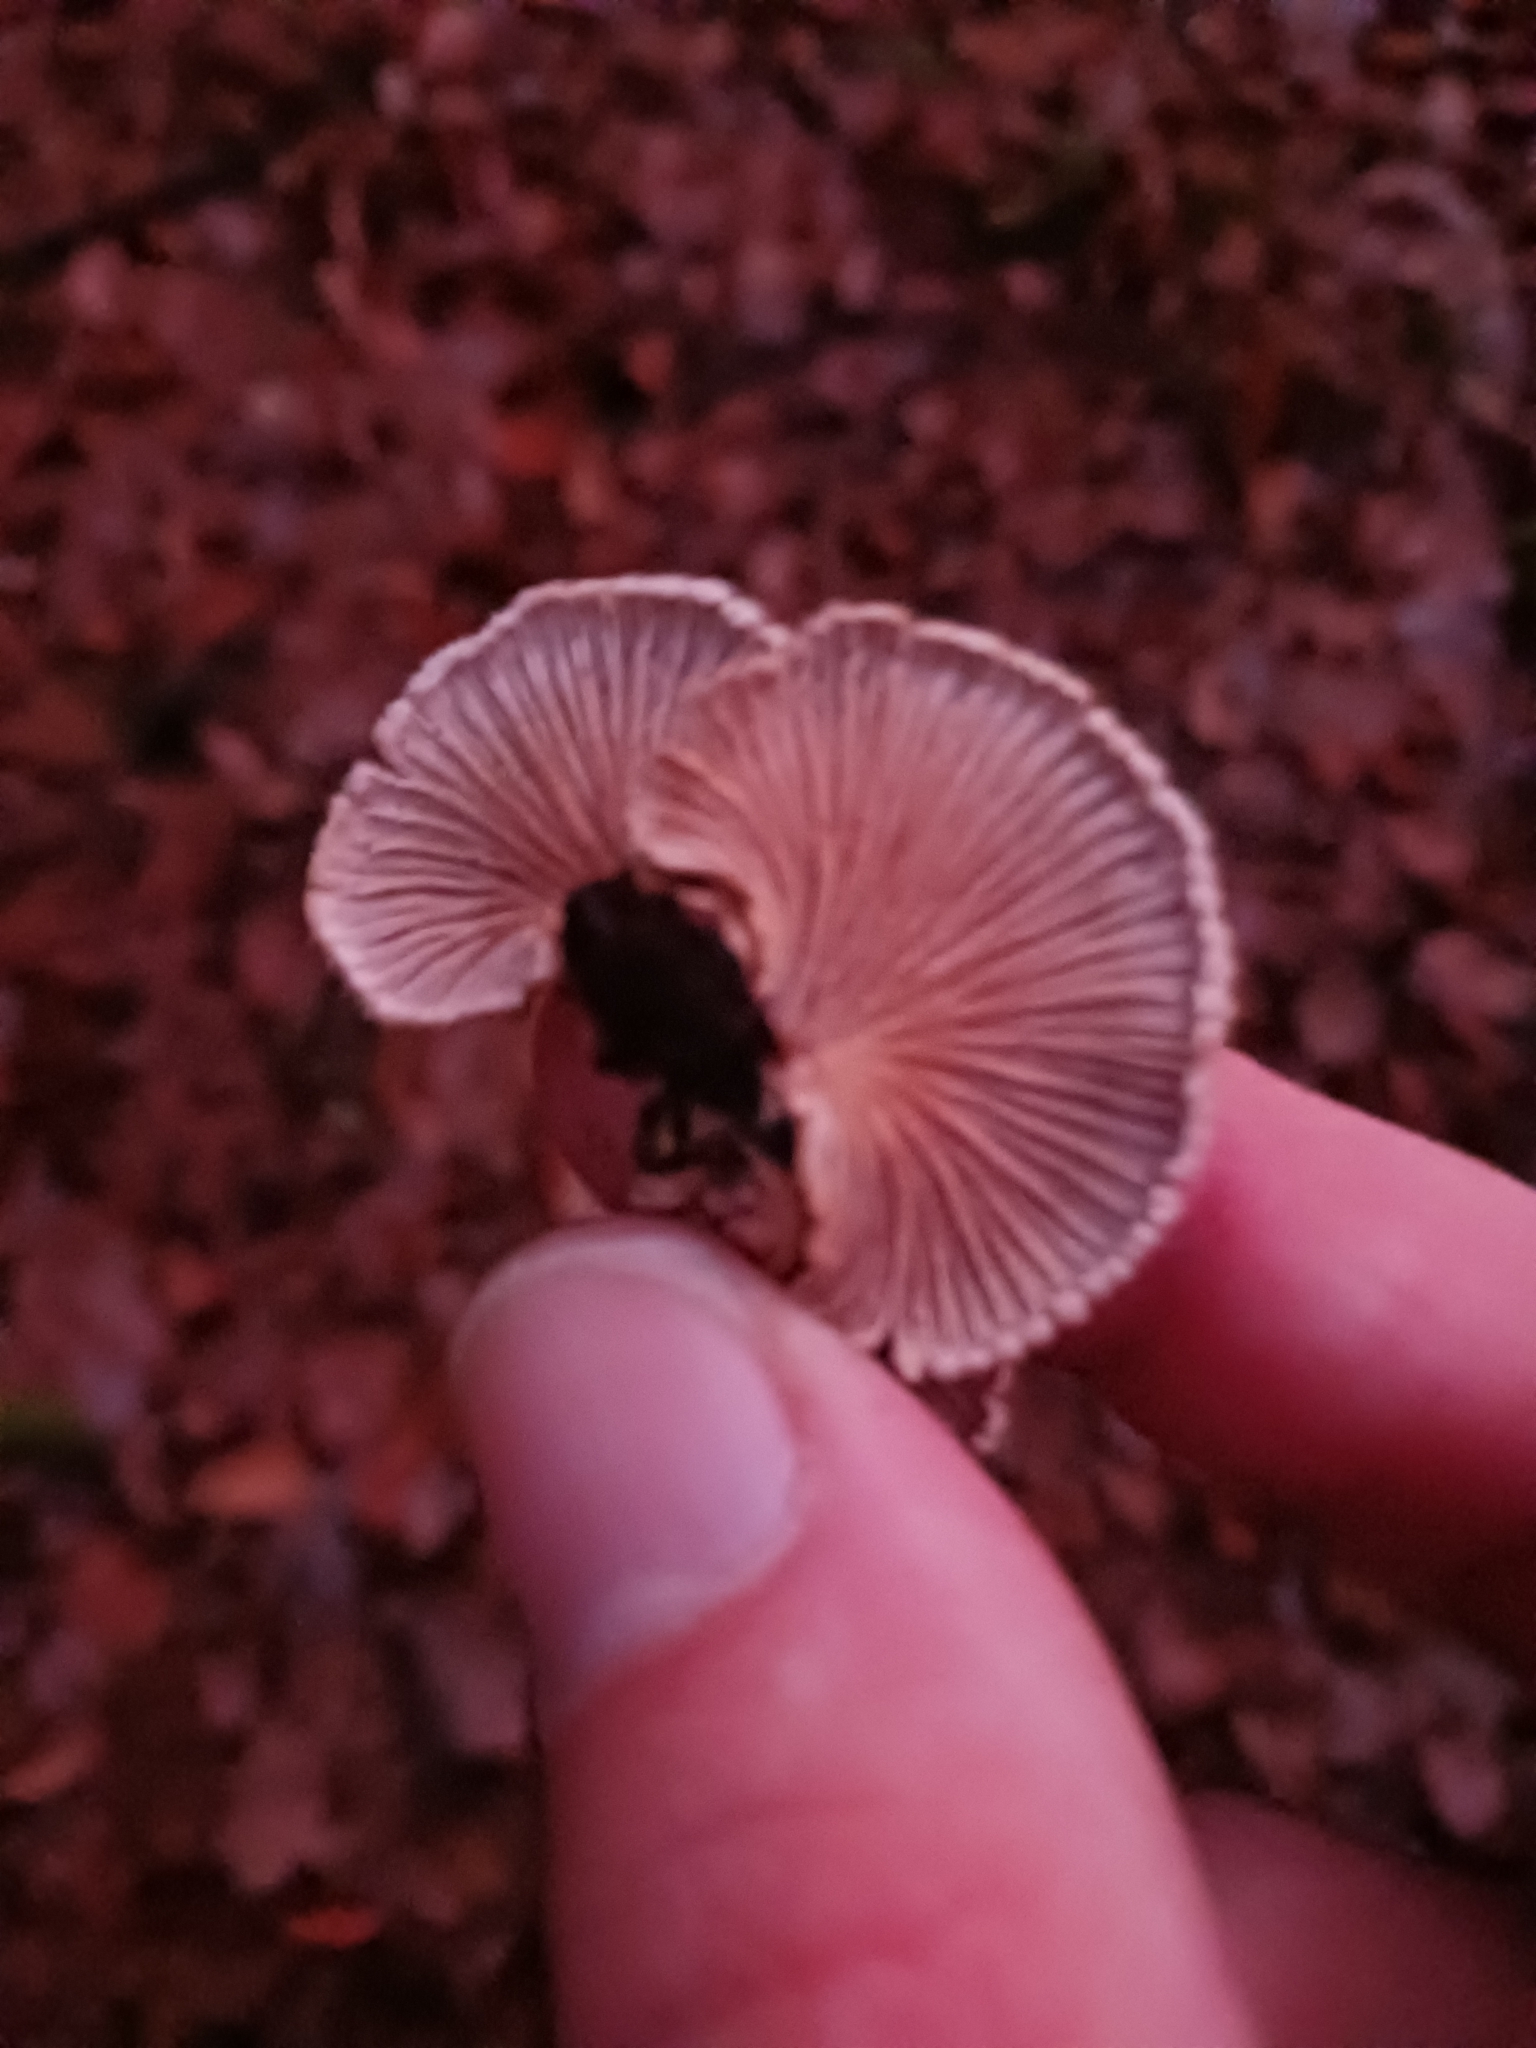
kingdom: Fungi
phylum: Basidiomycota
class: Agaricomycetes
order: Agaricales
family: Schizophyllaceae
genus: Schizophyllum
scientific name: Schizophyllum commune
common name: Common porecrust
